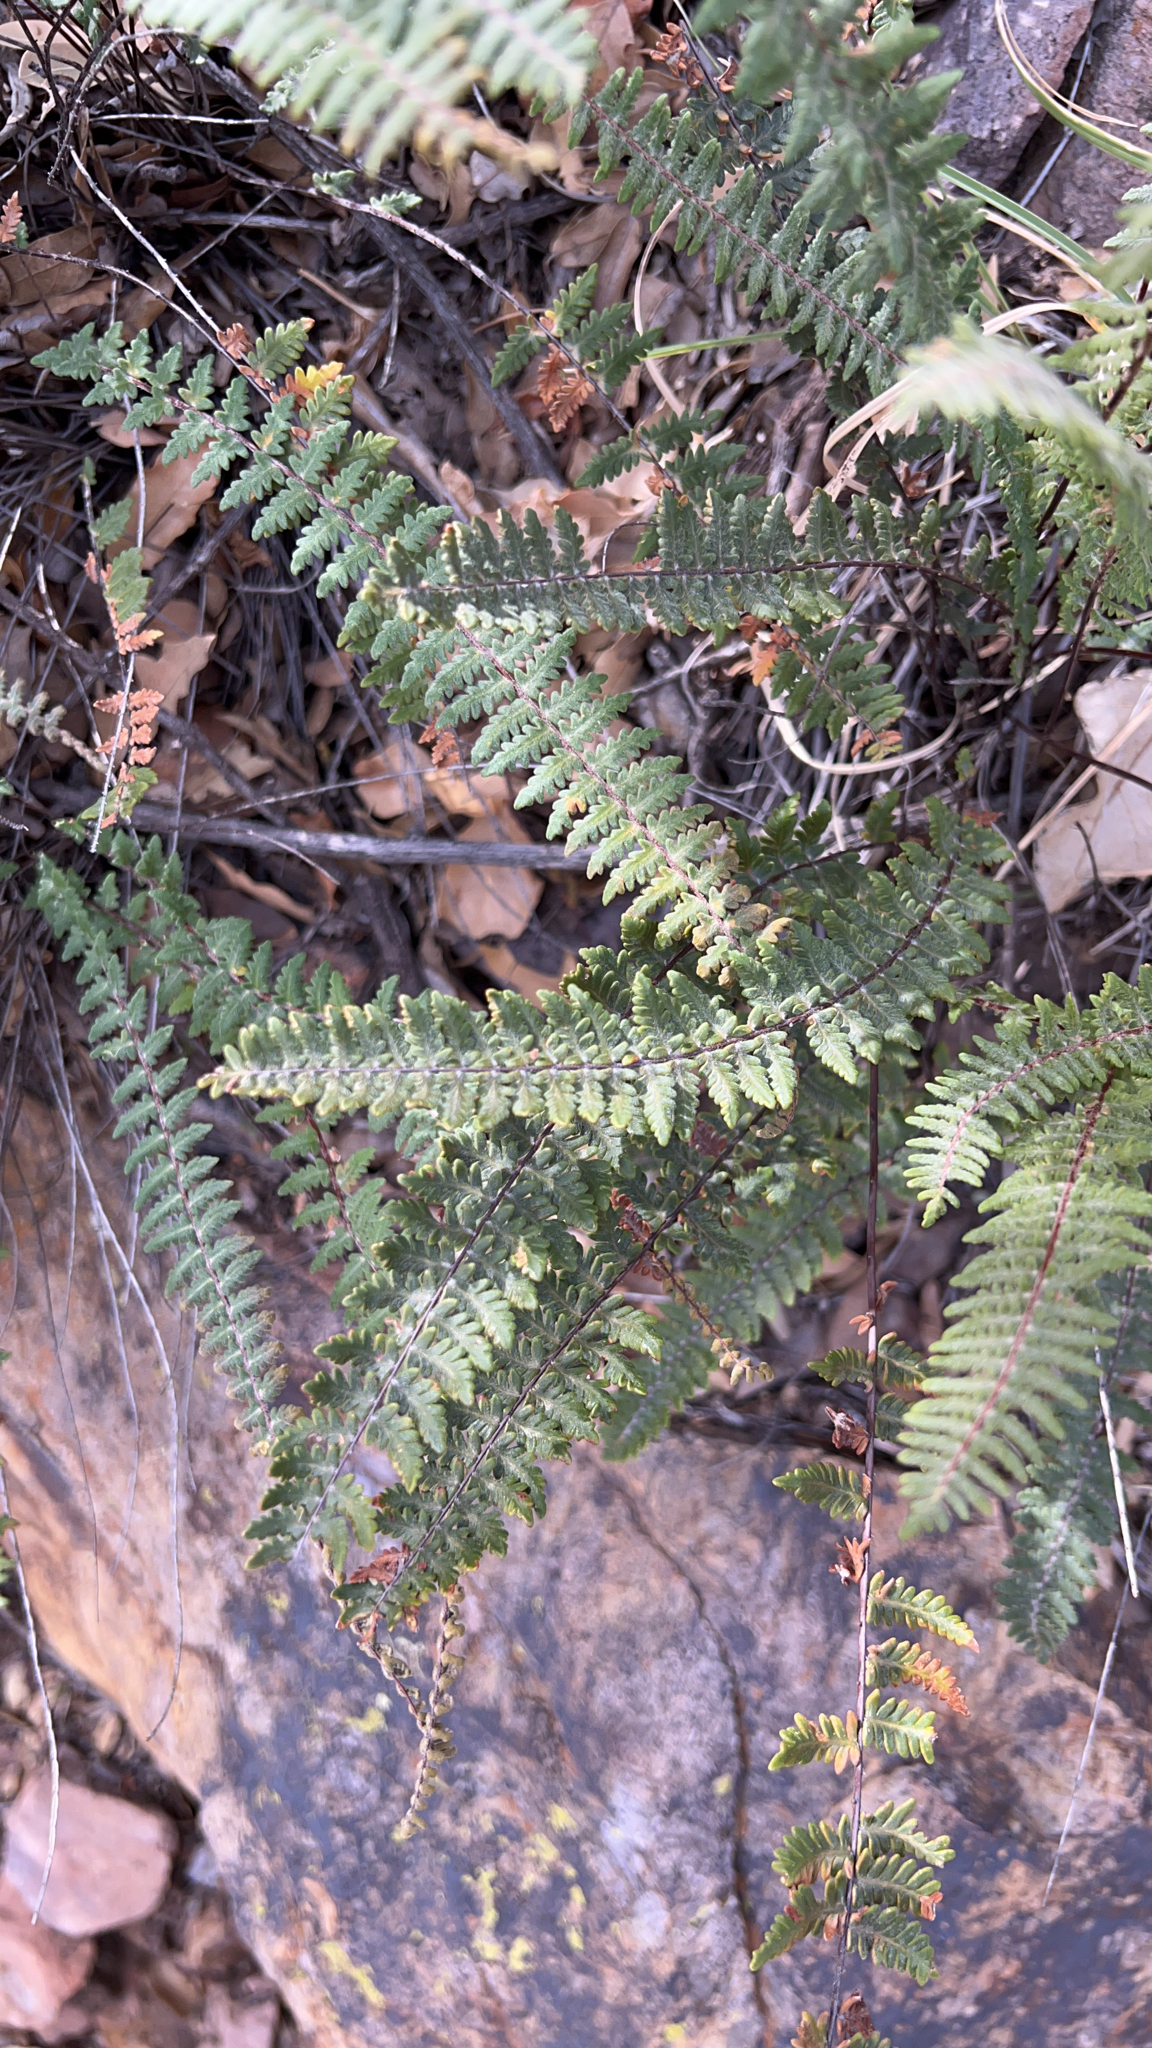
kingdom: Plantae
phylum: Tracheophyta
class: Polypodiopsida
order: Polypodiales
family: Pteridaceae
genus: Myriopteris
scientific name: Myriopteris aurea
